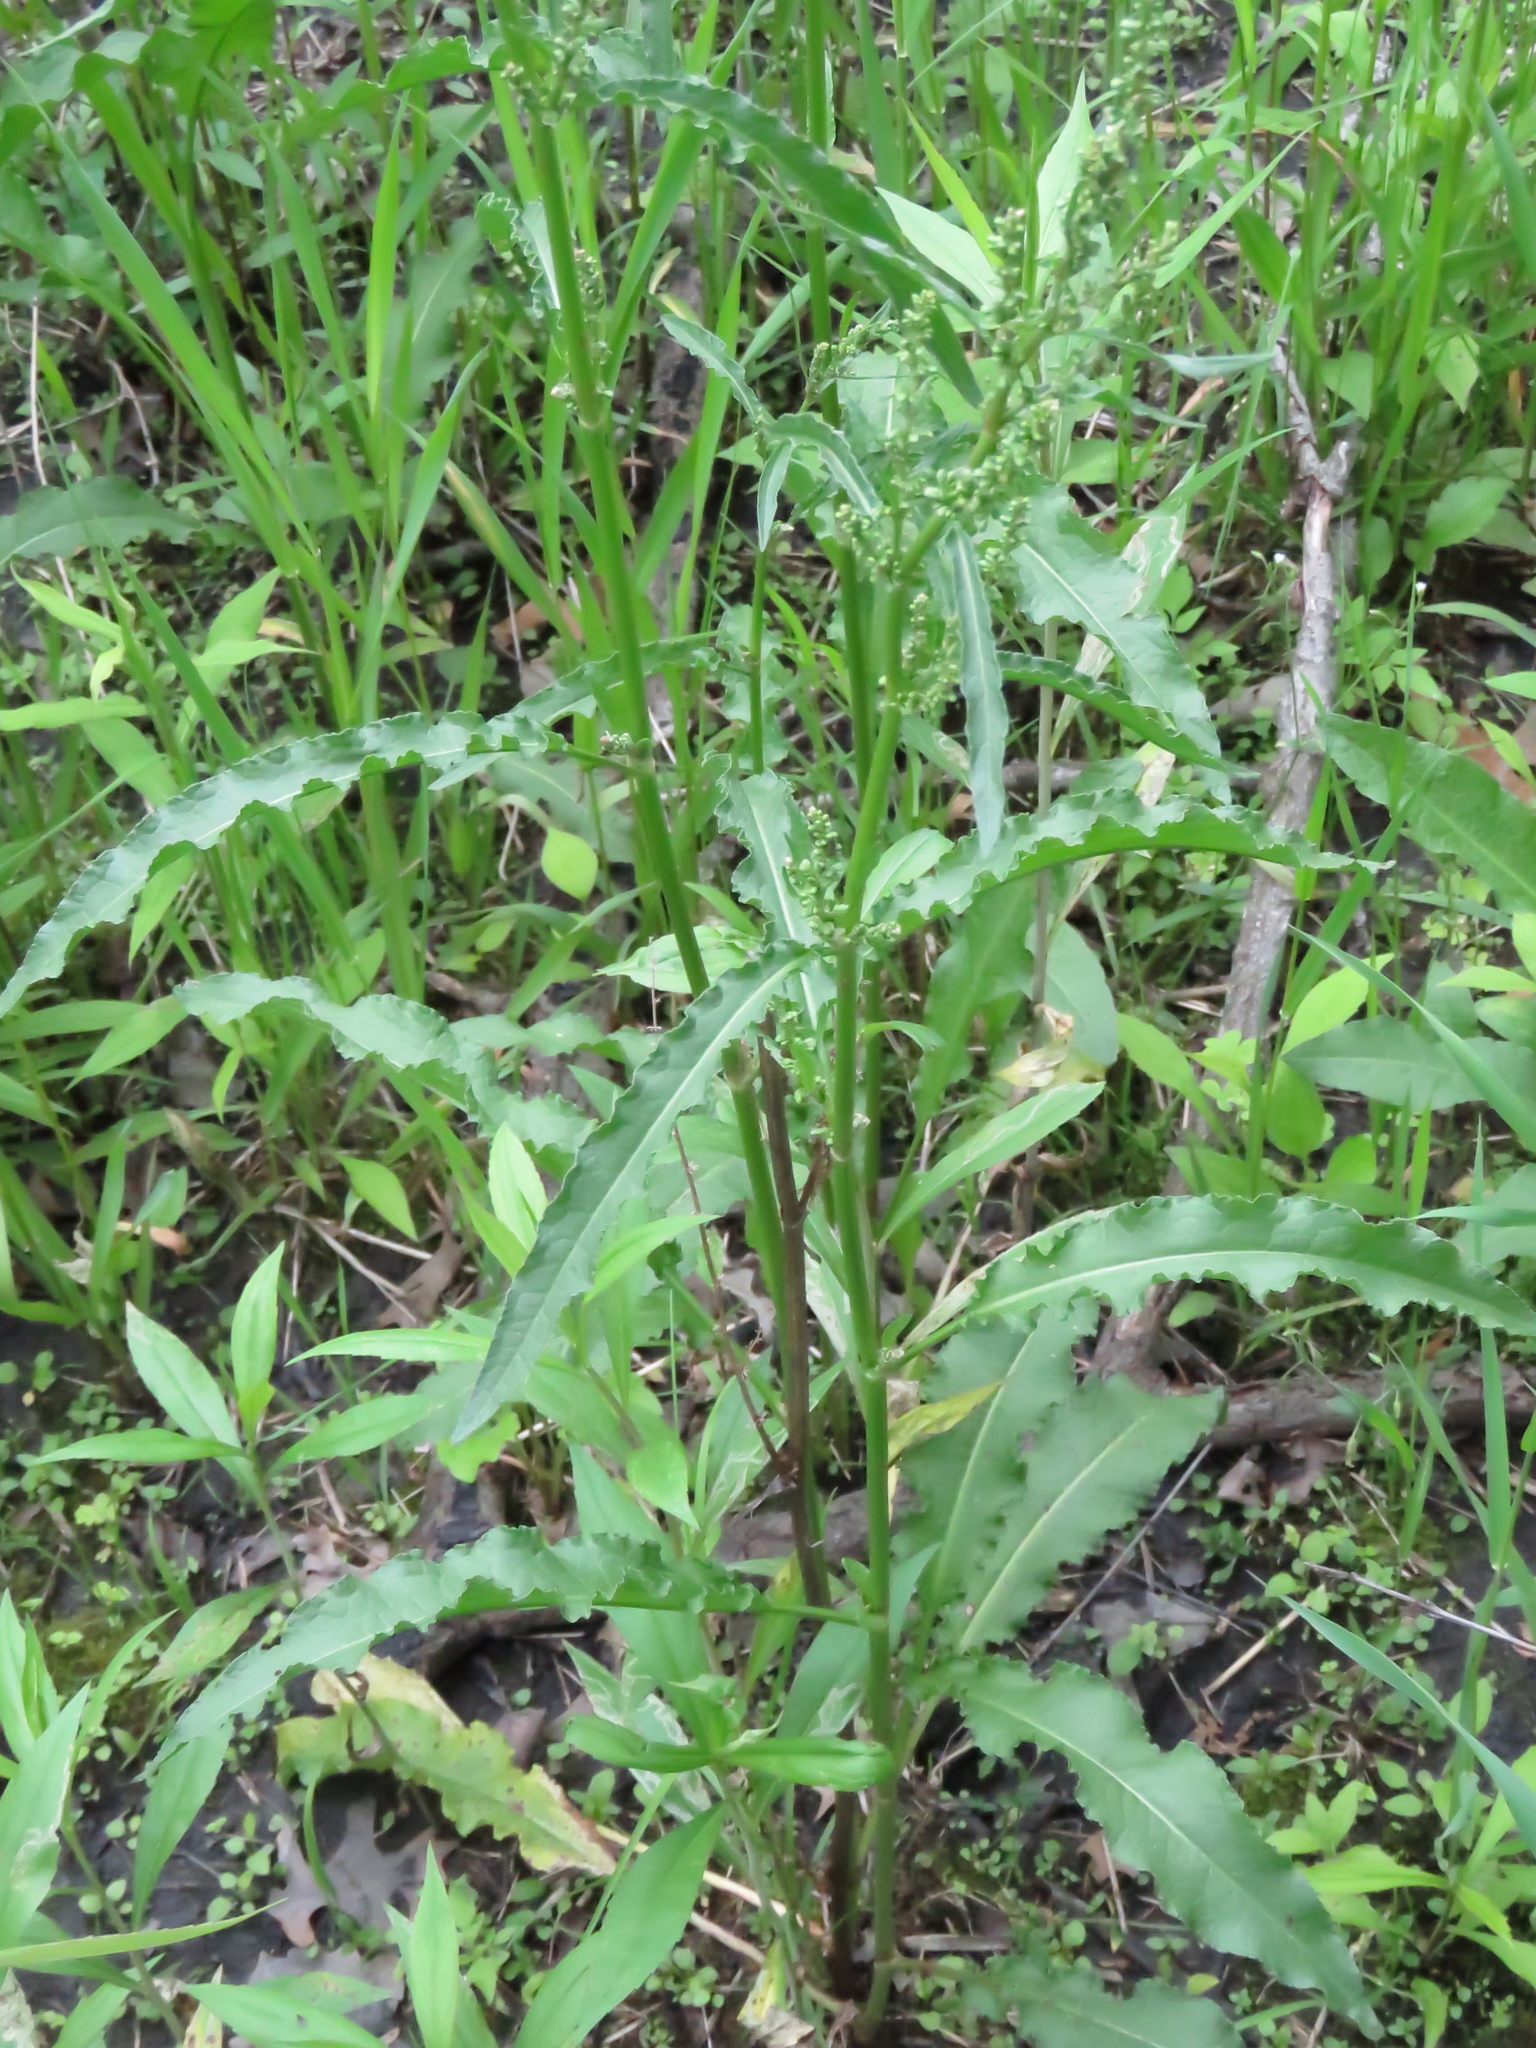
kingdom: Plantae
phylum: Tracheophyta
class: Magnoliopsida
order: Caryophyllales
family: Polygonaceae
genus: Rumex
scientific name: Rumex crispus
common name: Curled dock
